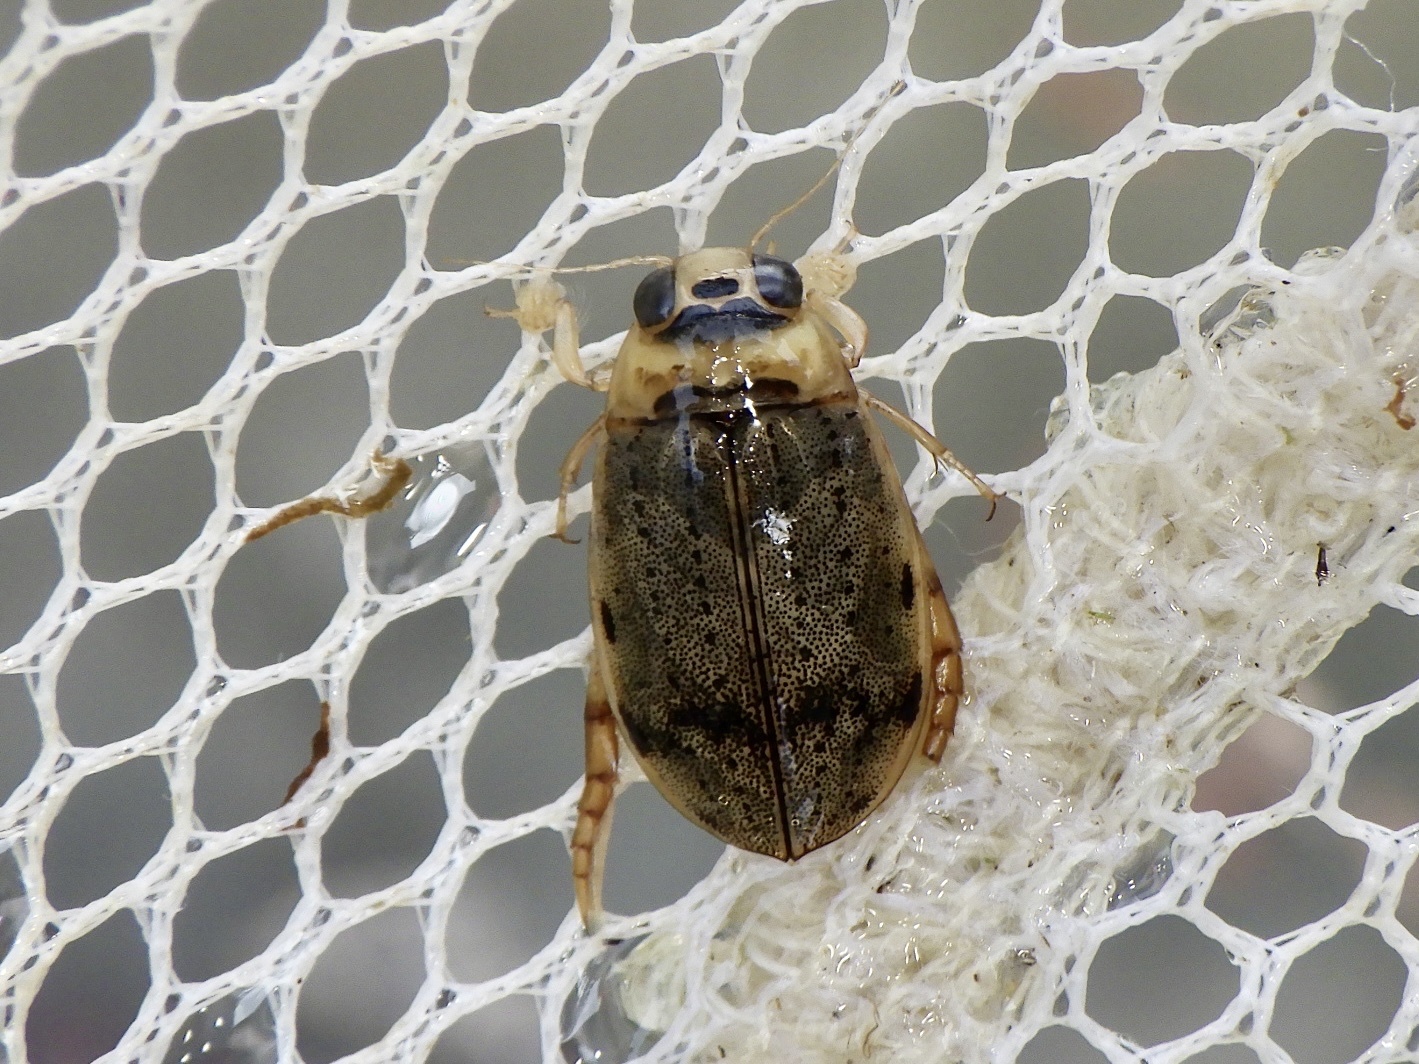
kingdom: Animalia
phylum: Arthropoda
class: Insecta
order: Coleoptera
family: Dytiscidae
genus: Eretes
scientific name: Eretes griseus
